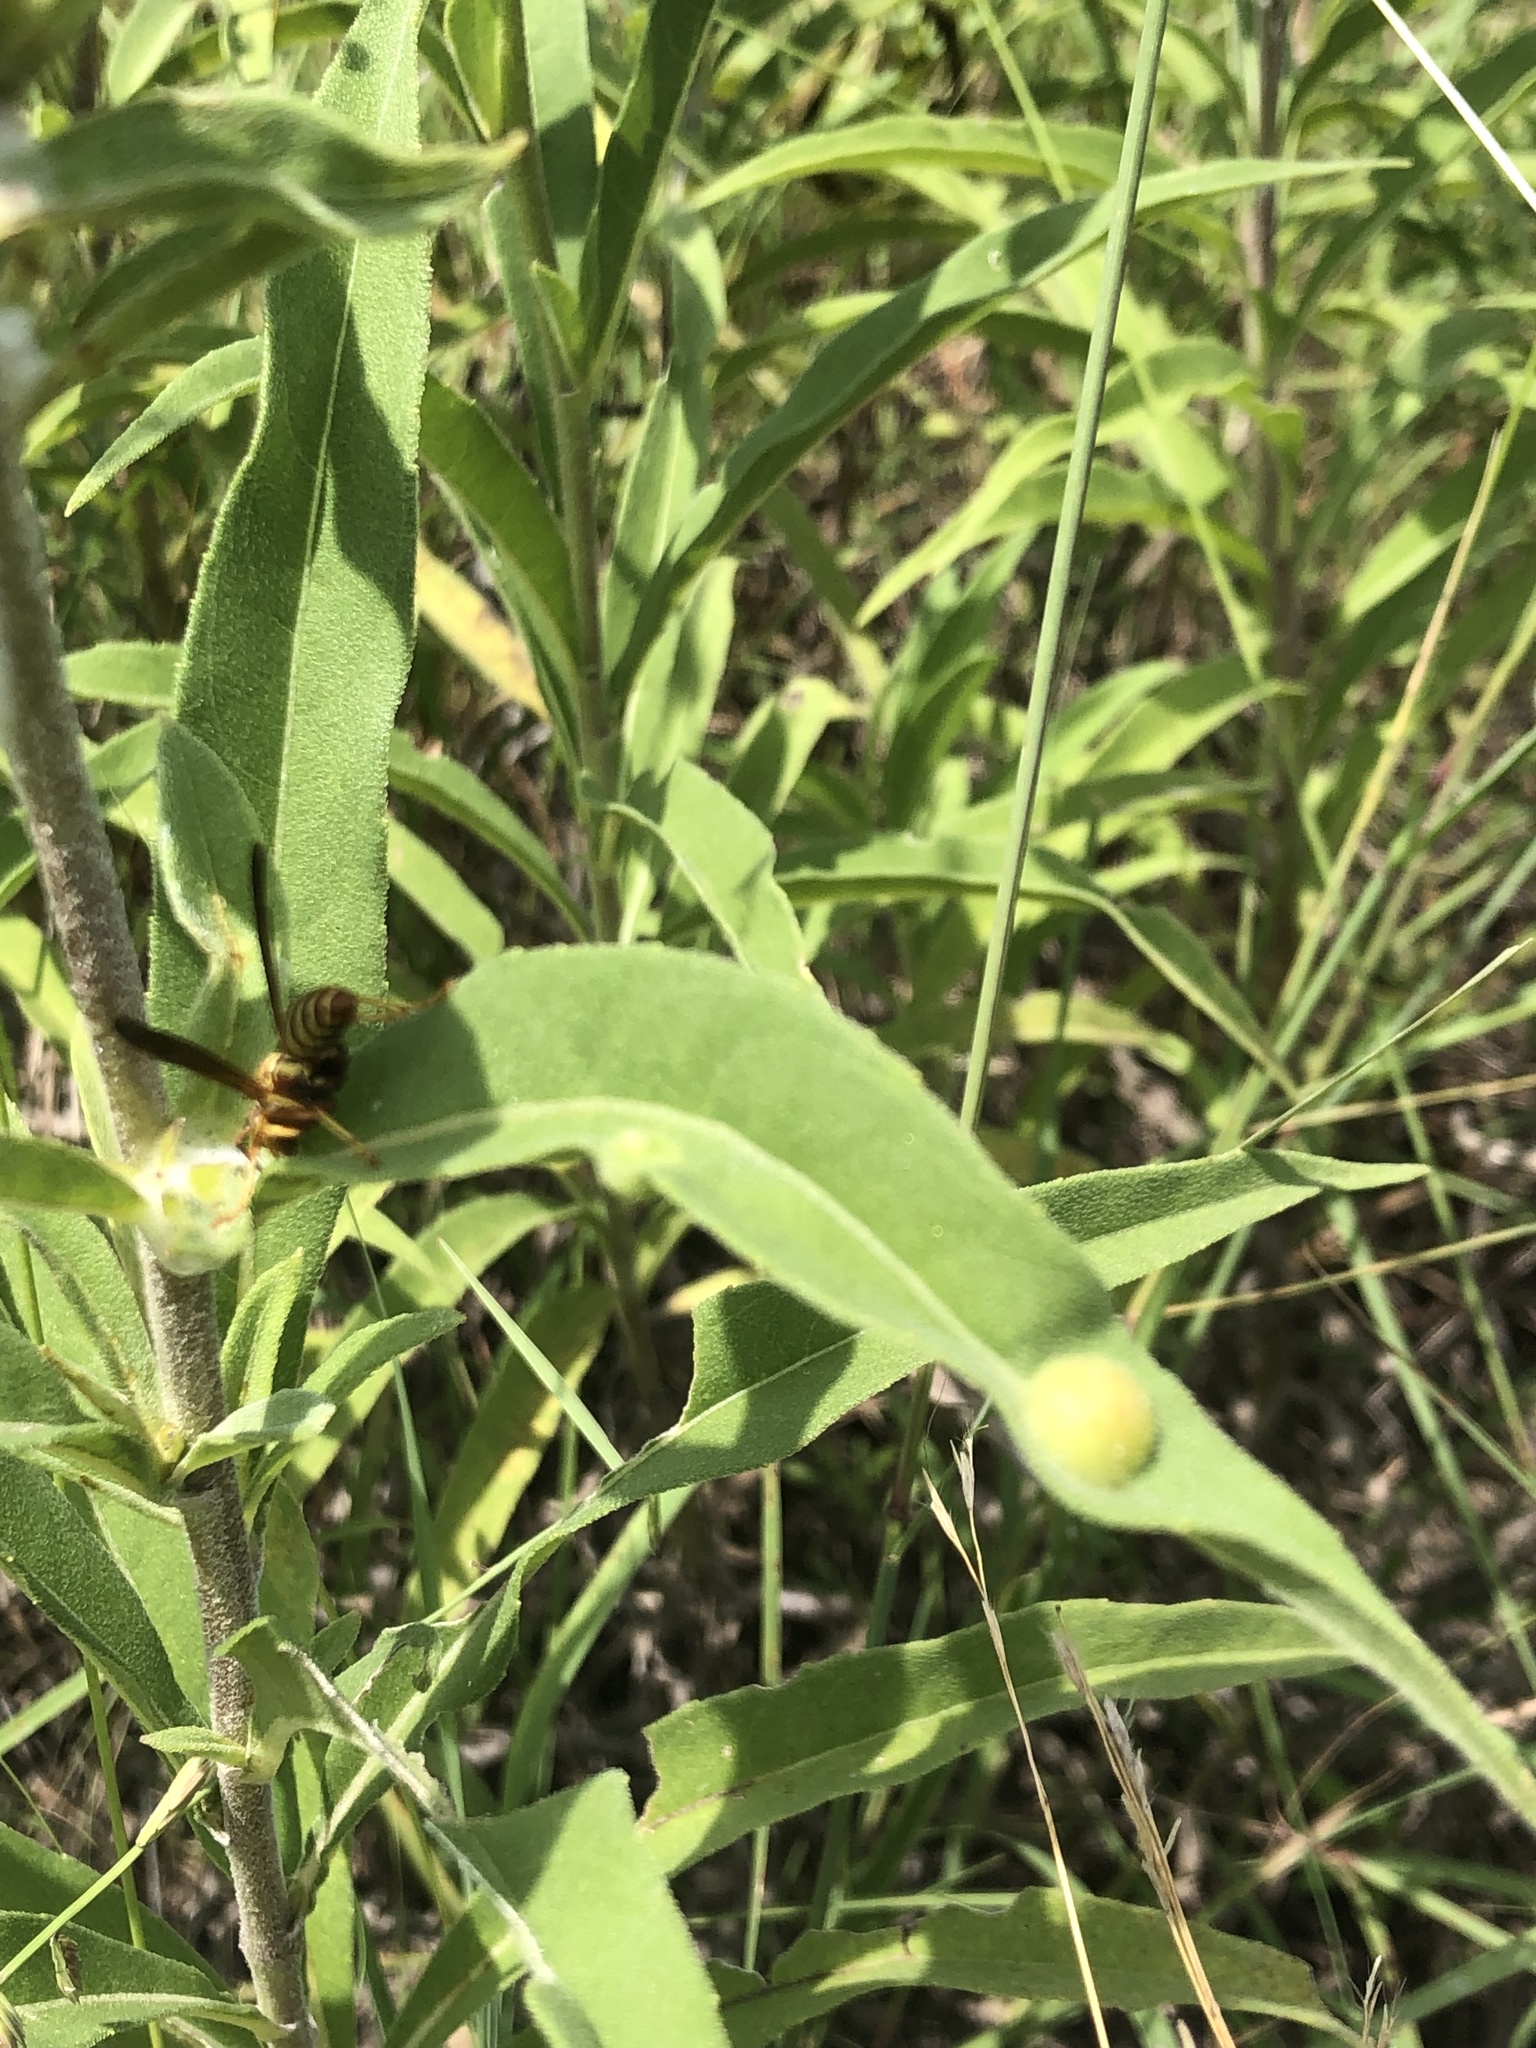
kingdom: Animalia
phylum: Arthropoda
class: Insecta
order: Diptera
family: Cecidomyiidae
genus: Pilodiplosis
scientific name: Pilodiplosis helianthibulla
